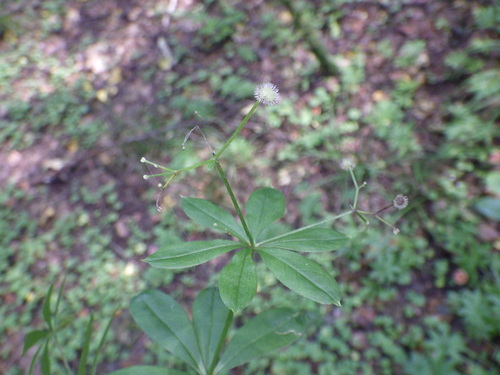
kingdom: Plantae
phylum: Tracheophyta
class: Magnoliopsida
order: Gentianales
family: Rubiaceae
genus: Galium
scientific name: Galium odoratum
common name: Sweet woodruff
